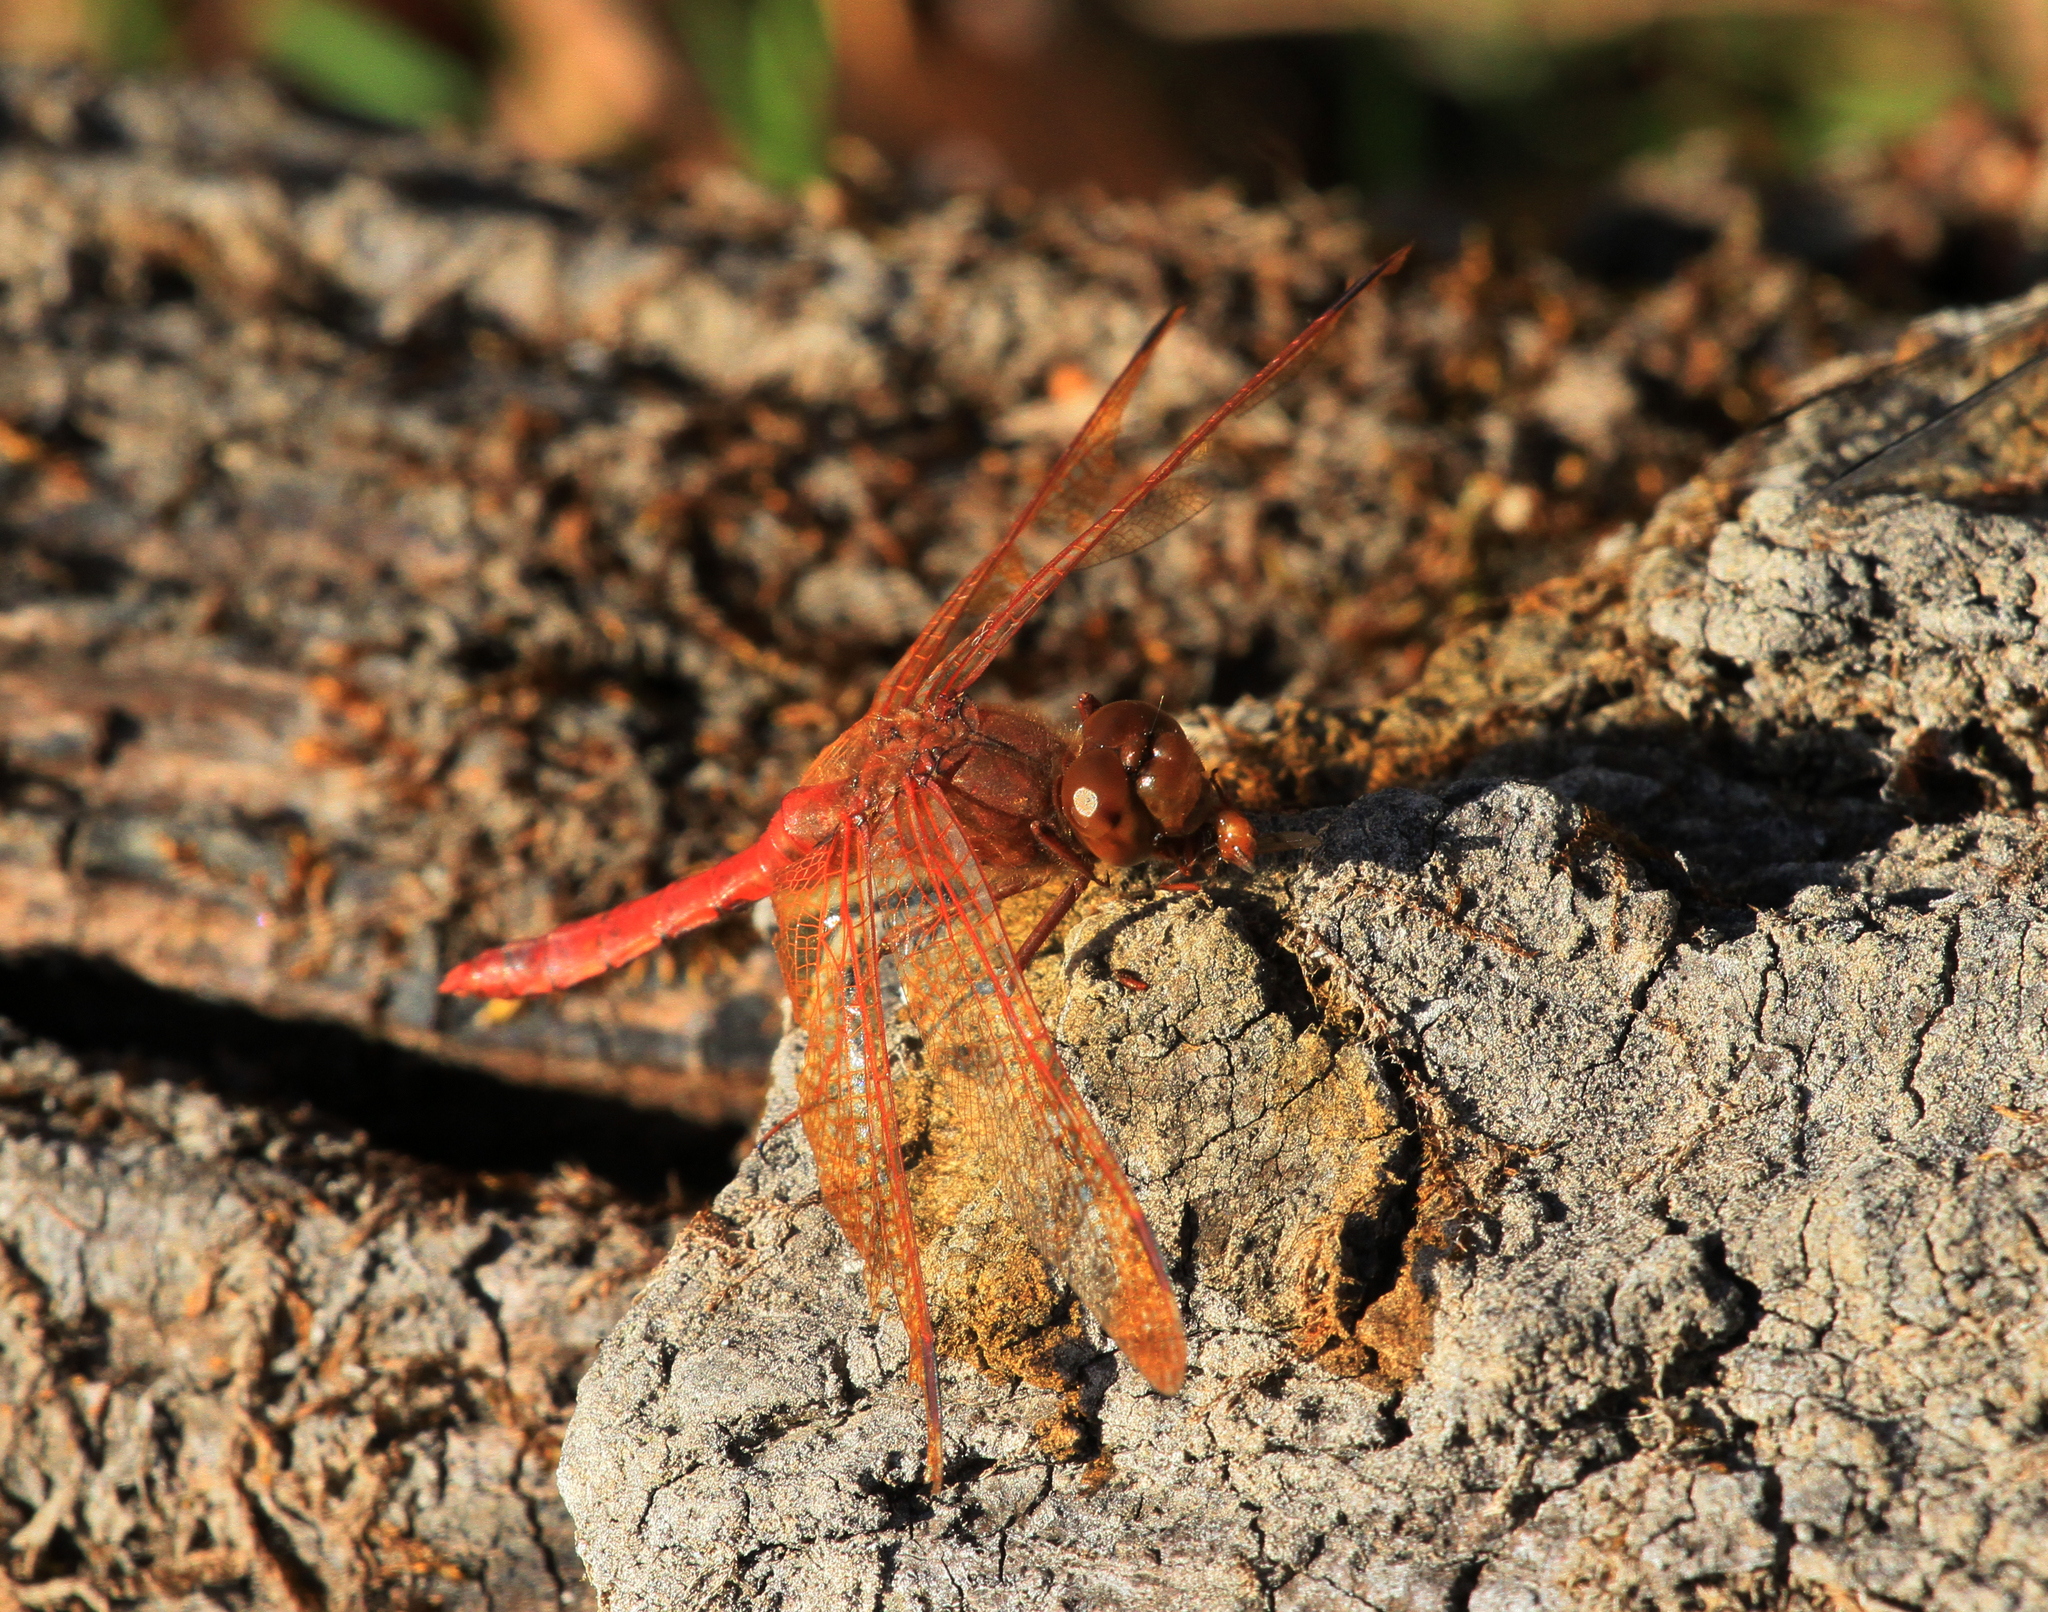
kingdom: Animalia
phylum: Arthropoda
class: Insecta
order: Odonata
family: Libellulidae
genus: Sympetrum
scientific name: Sympetrum croceolum
